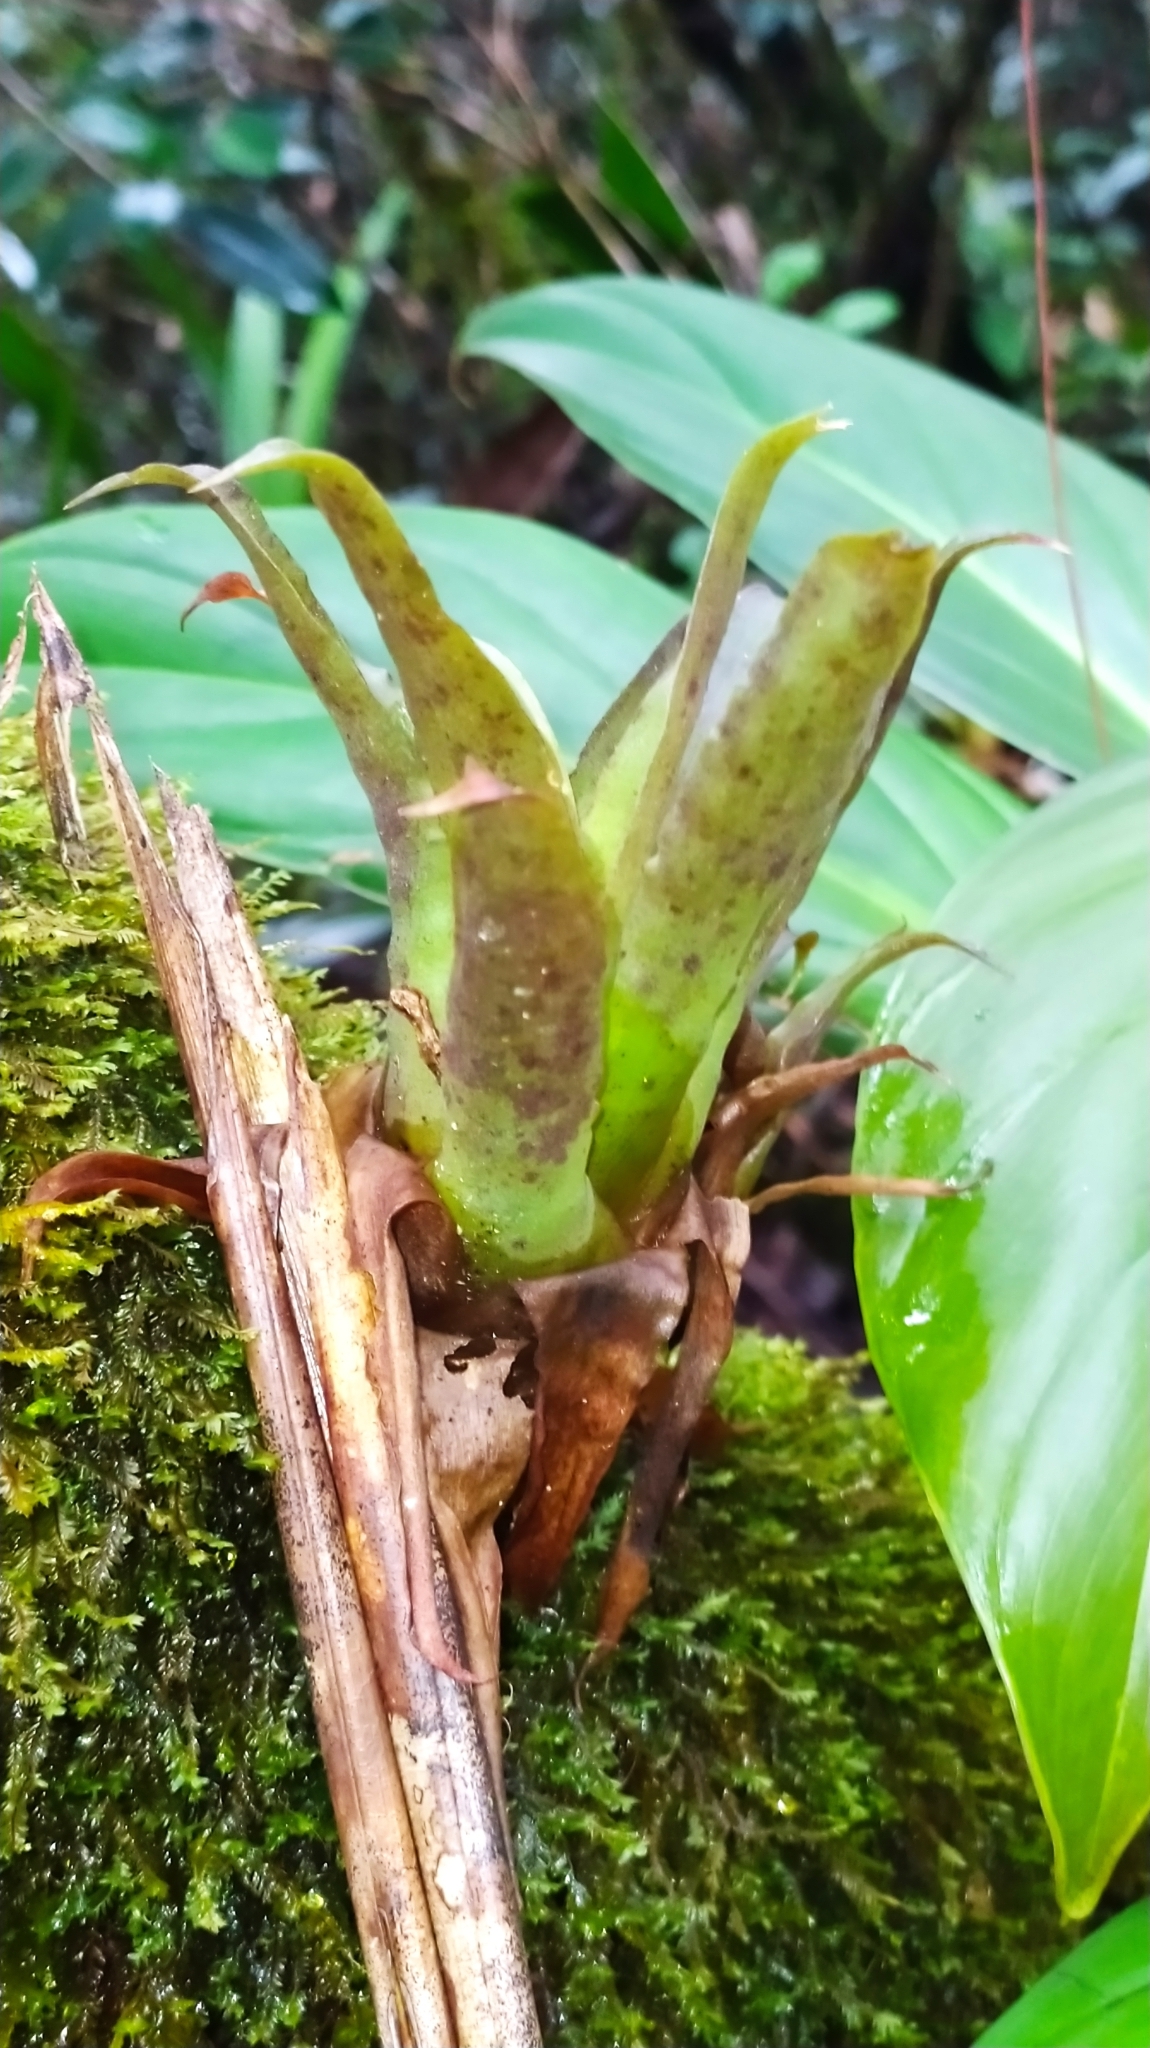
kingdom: Plantae
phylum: Tracheophyta
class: Liliopsida
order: Poales
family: Bromeliaceae
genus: Racinaea
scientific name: Racinaea spiculosa
